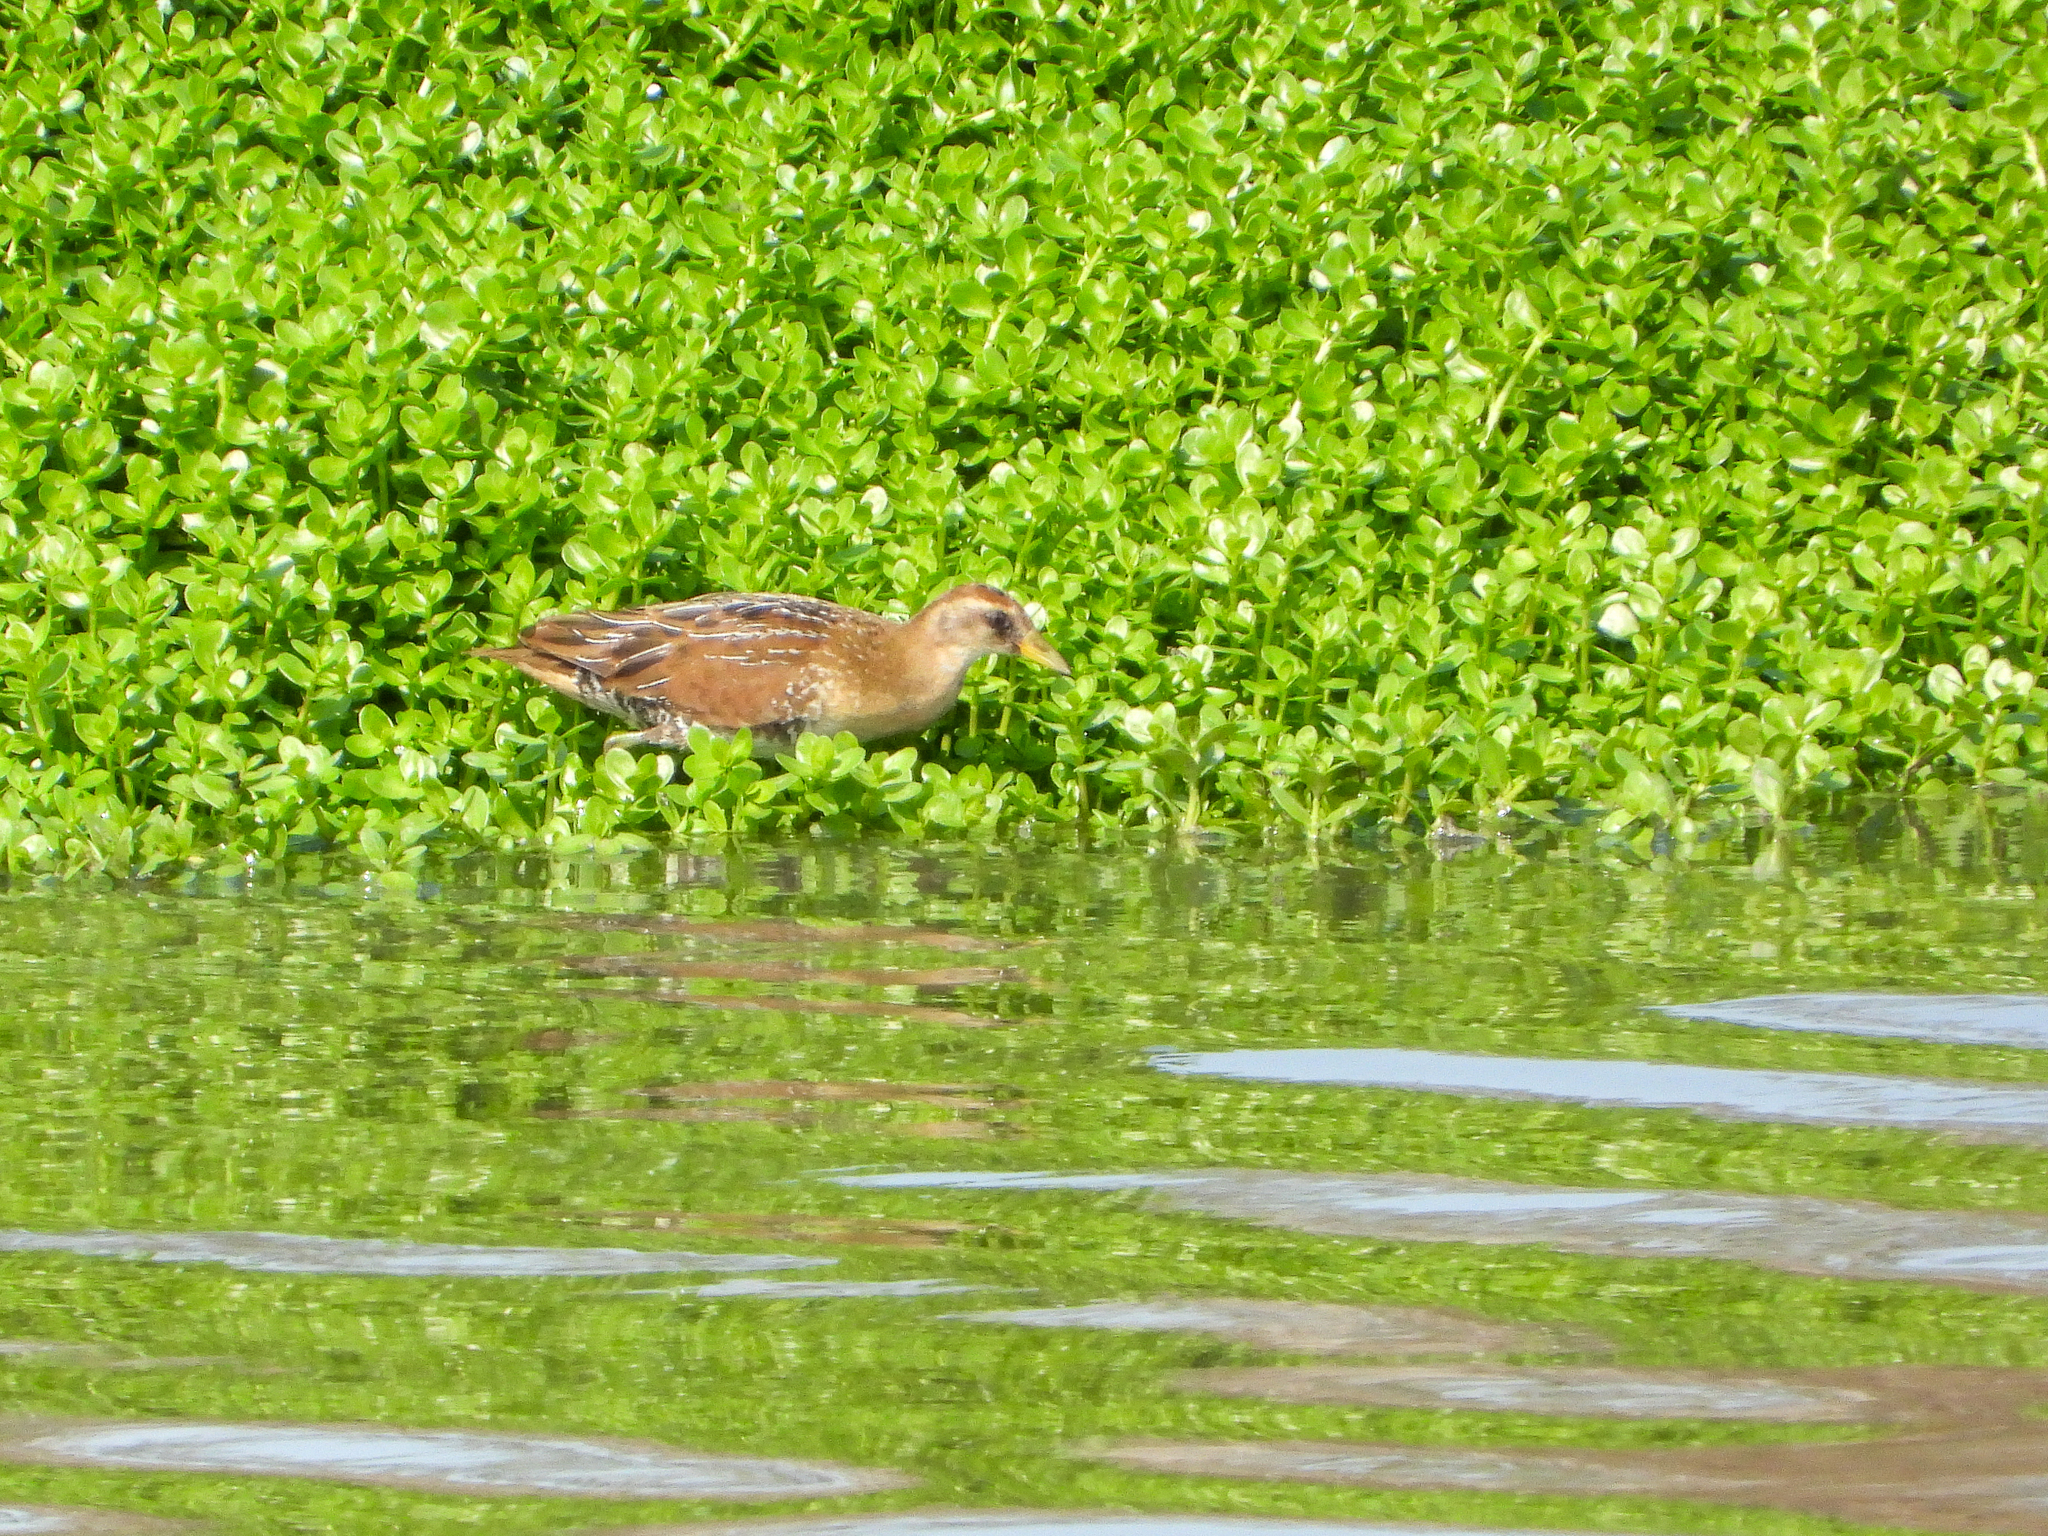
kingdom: Animalia
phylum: Chordata
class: Aves
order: Gruiformes
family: Rallidae
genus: Porzana
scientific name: Porzana carolina
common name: Sora
